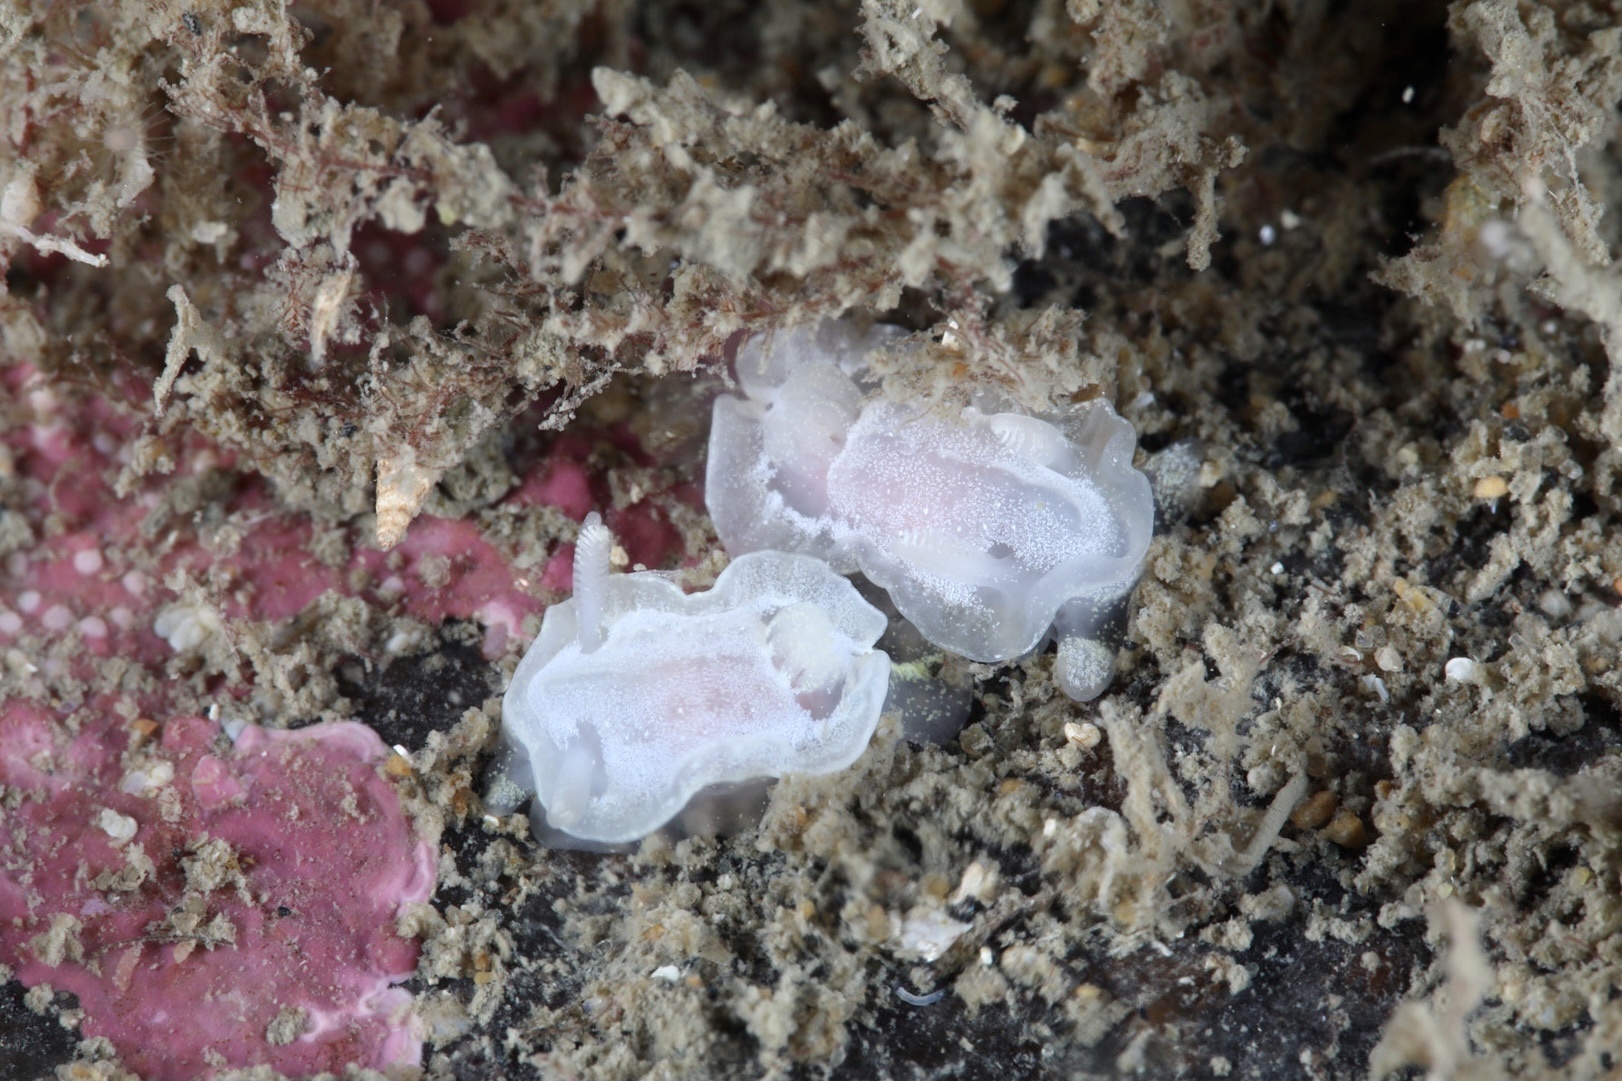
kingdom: Animalia
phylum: Mollusca
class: Gastropoda
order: Nudibranchia
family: Goniodorididae
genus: Okenia
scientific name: Okenia
